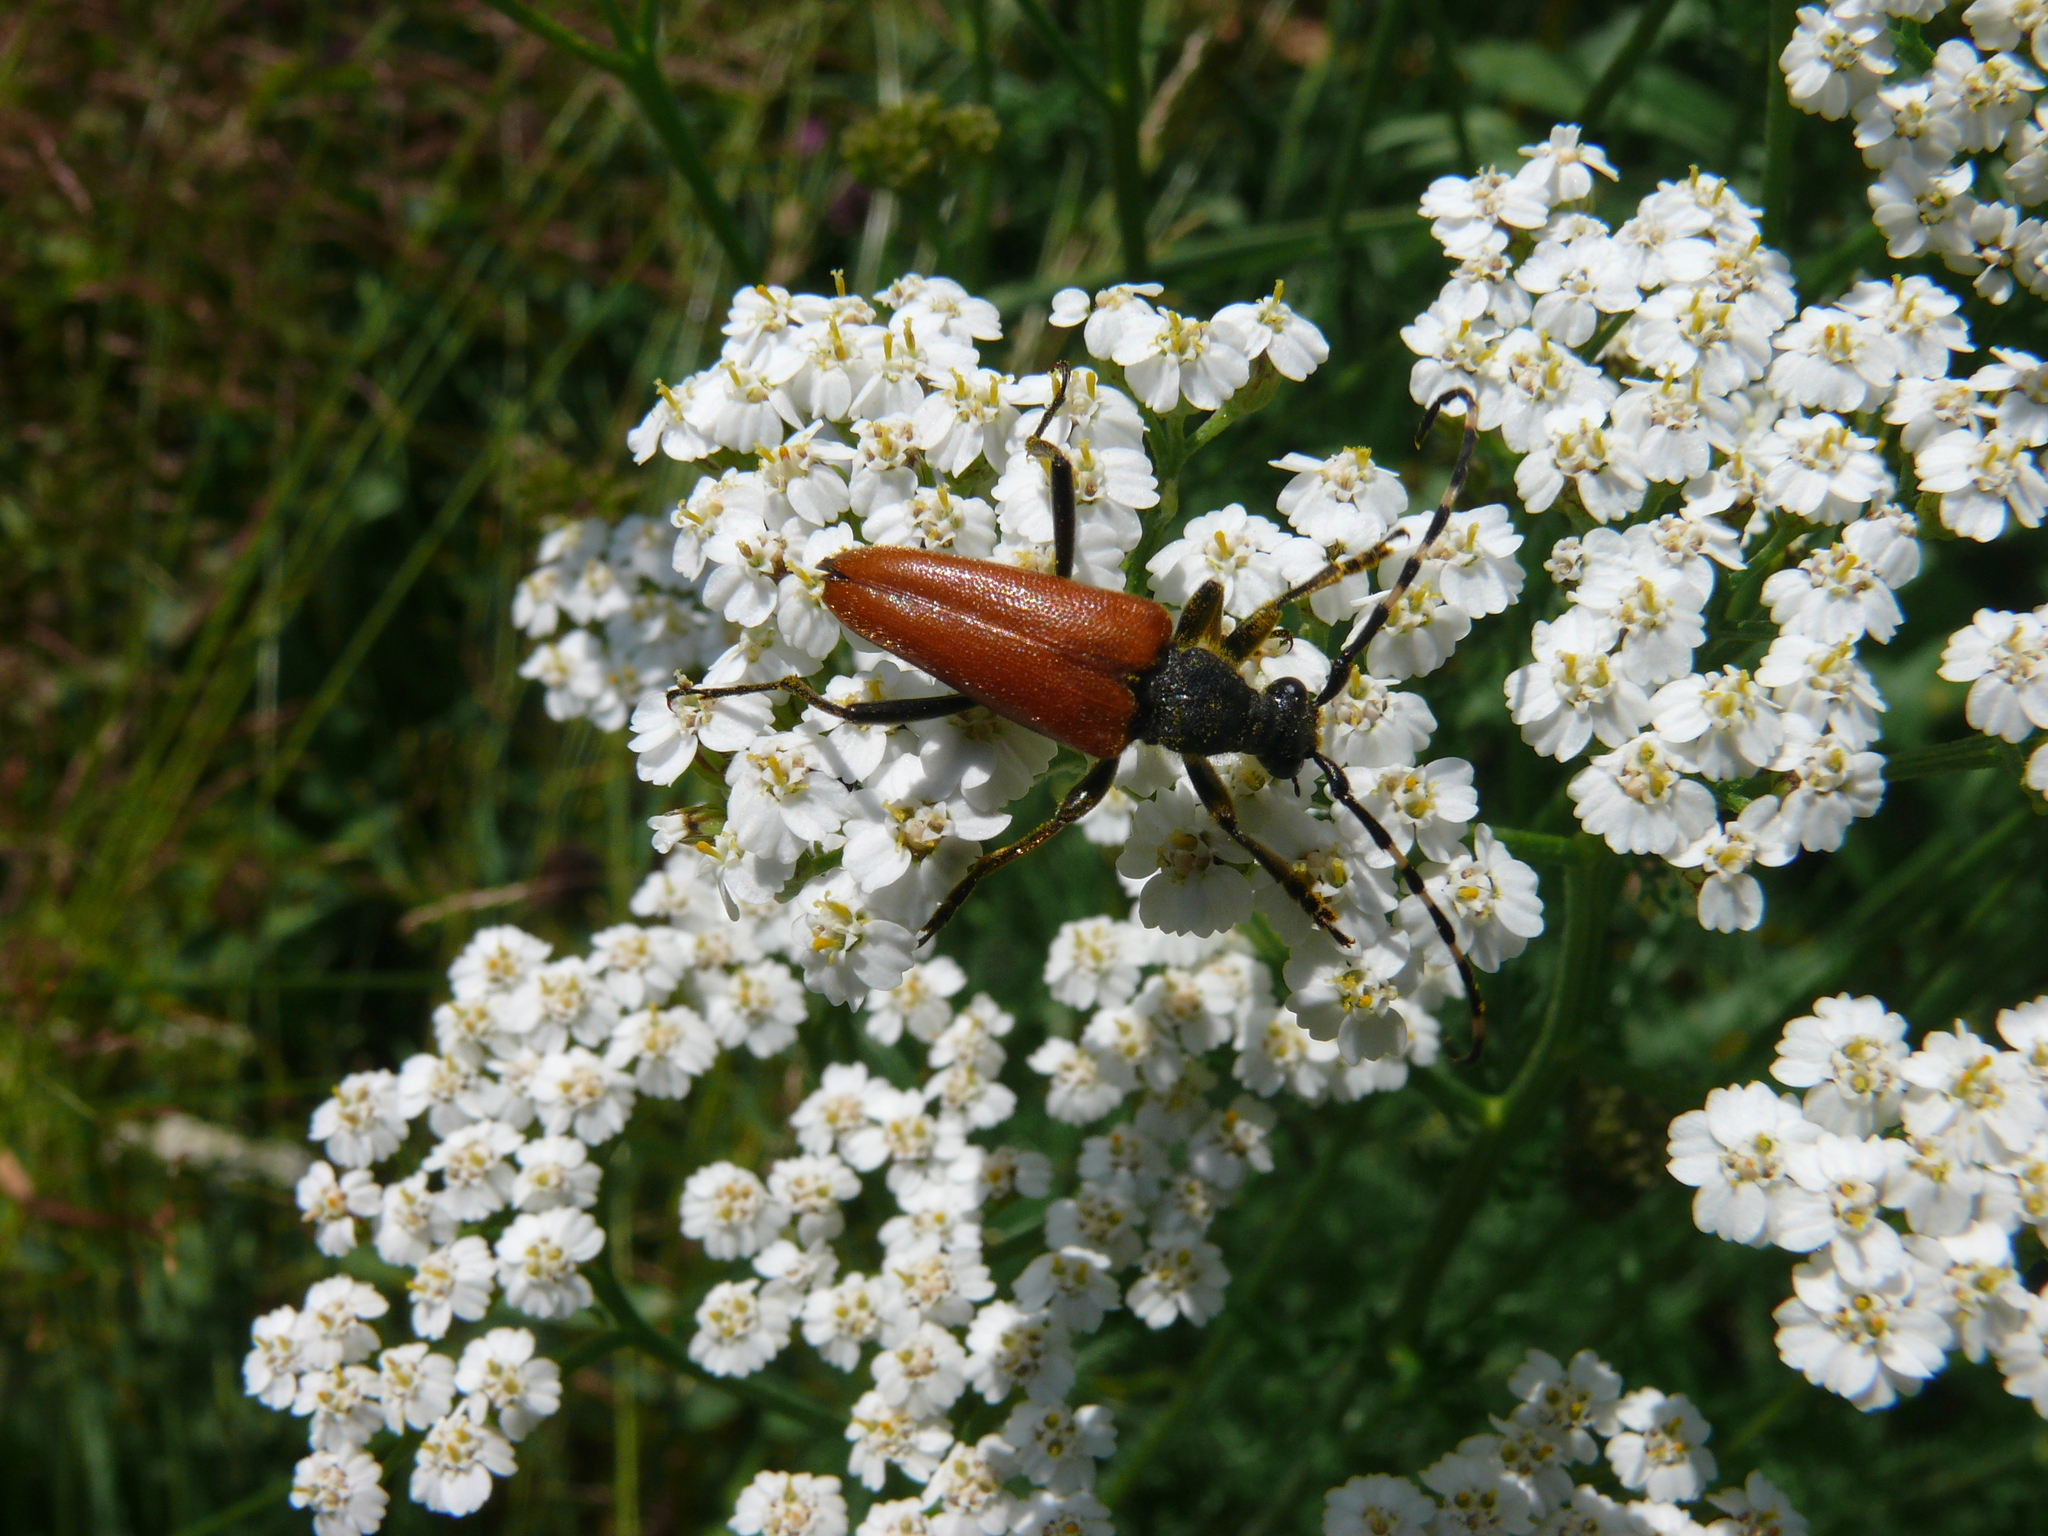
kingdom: Animalia
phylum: Arthropoda
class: Insecta
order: Coleoptera
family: Cerambycidae
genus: Stictoleptura
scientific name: Stictoleptura variicornis
